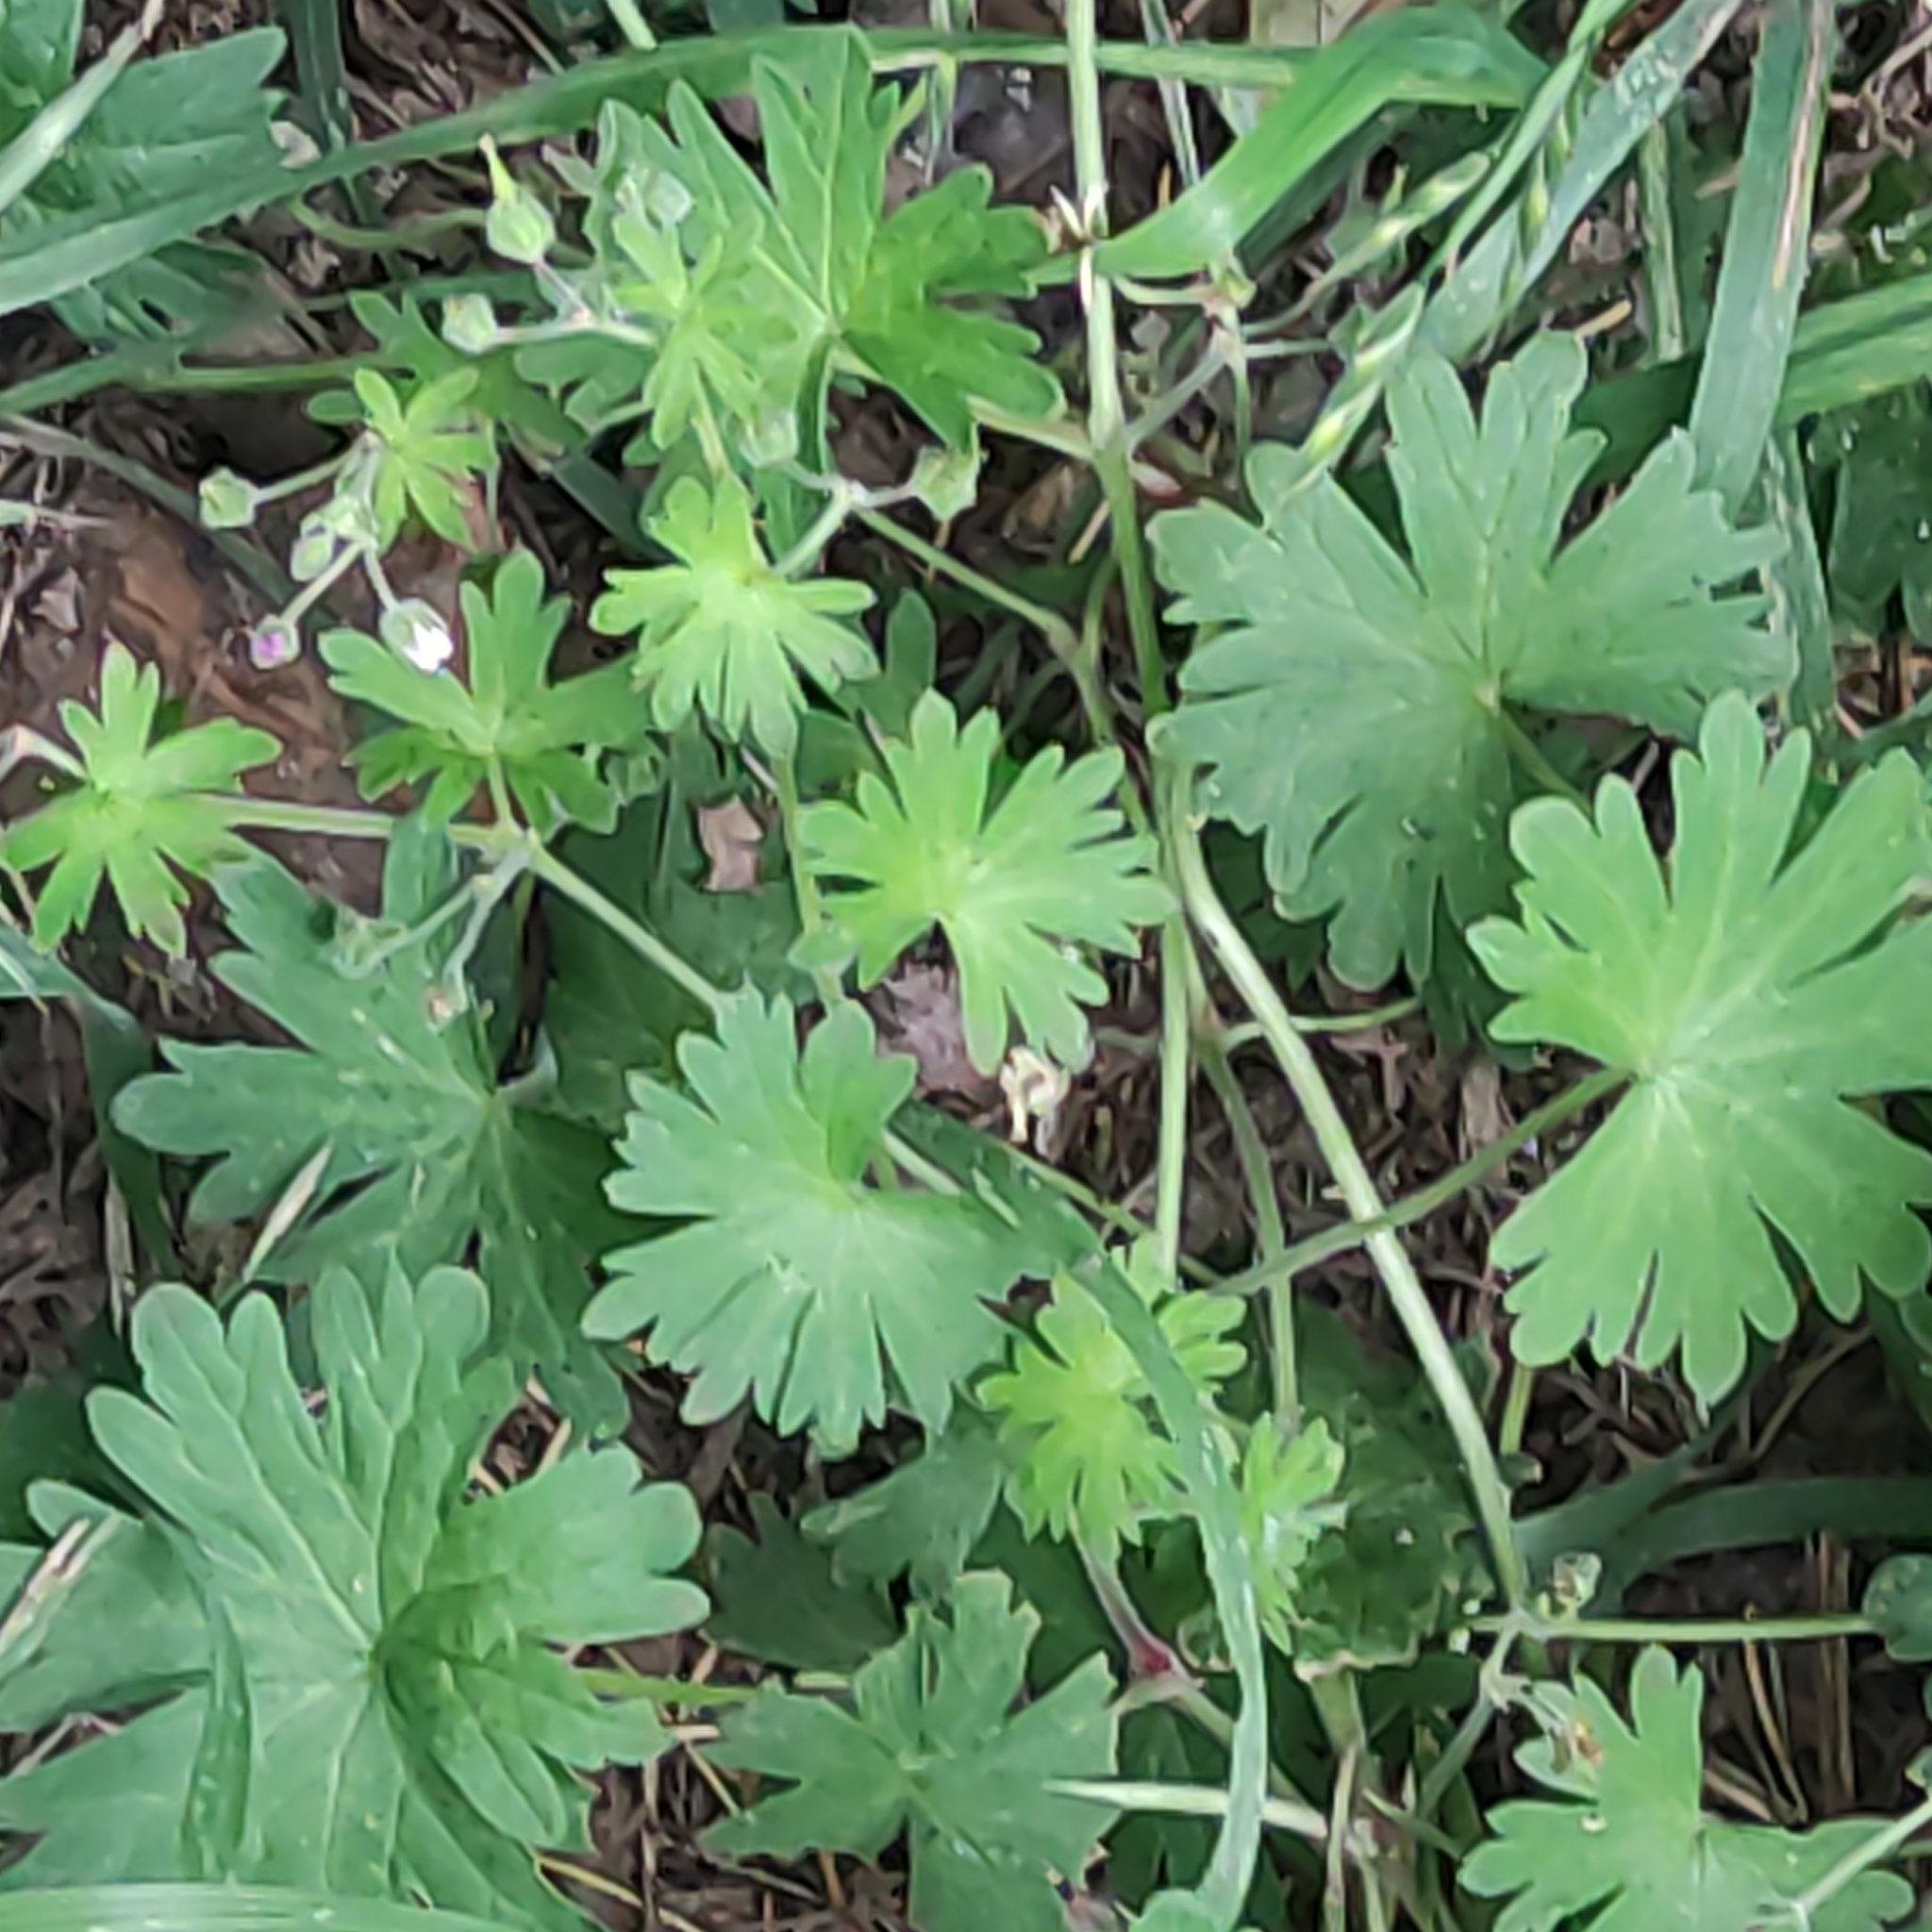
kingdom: Plantae
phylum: Tracheophyta
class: Magnoliopsida
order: Geraniales
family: Geraniaceae
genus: Geranium
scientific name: Geranium molle
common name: Dove's-foot crane's-bill
